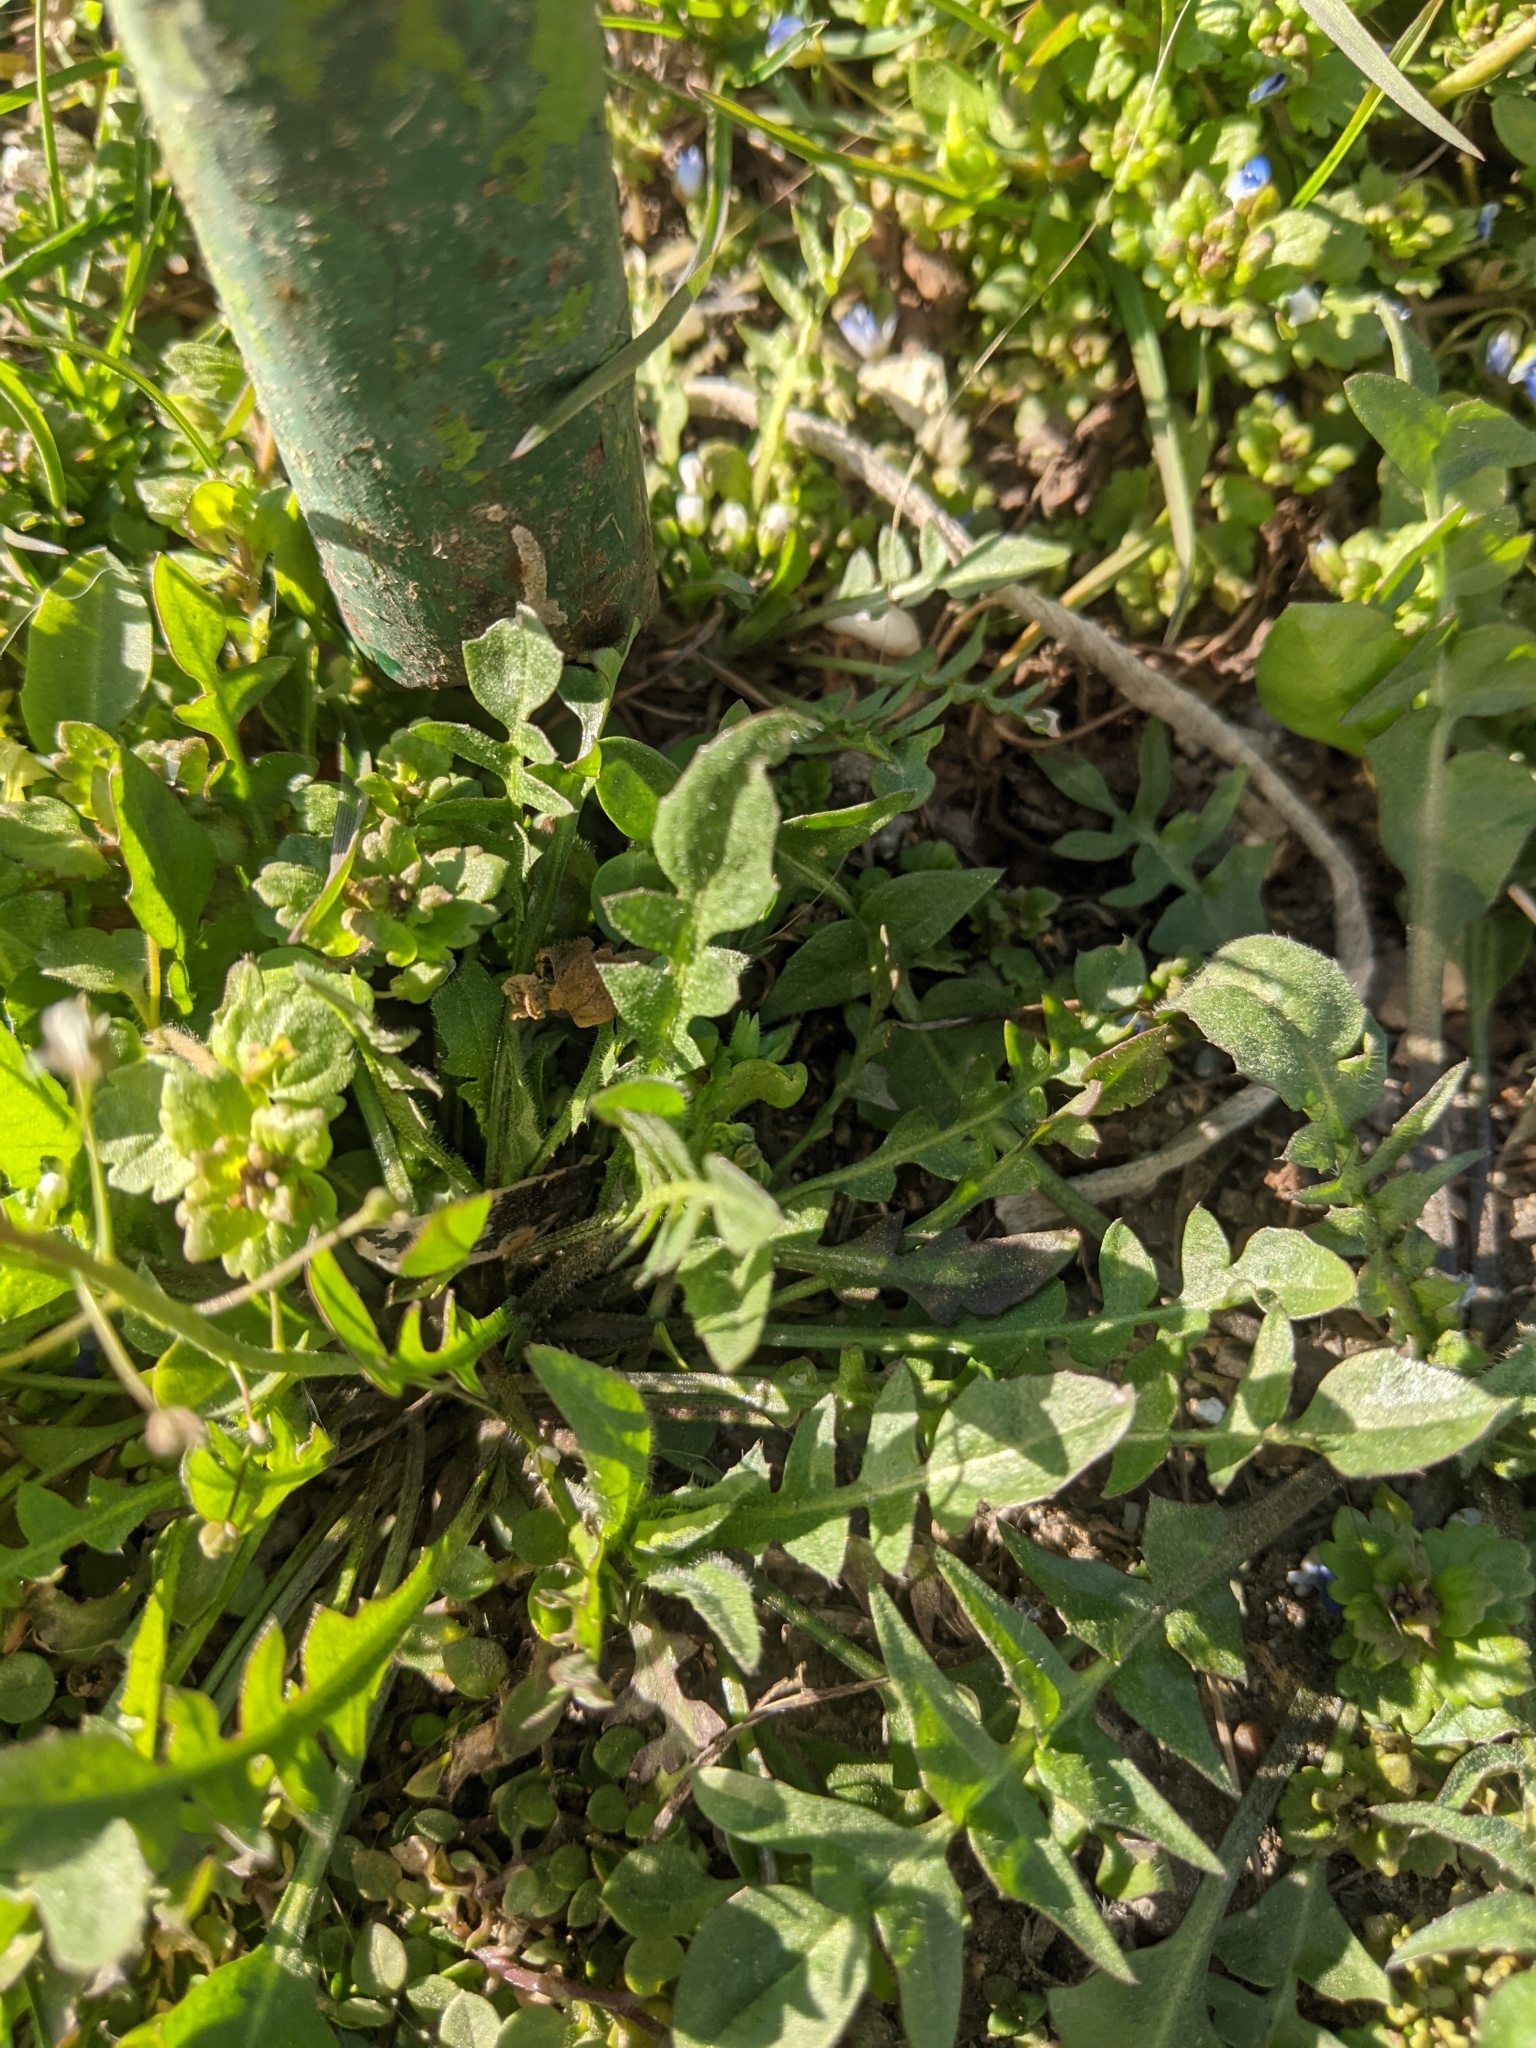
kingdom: Plantae
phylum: Tracheophyta
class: Magnoliopsida
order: Brassicales
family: Brassicaceae
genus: Capsella
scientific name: Capsella bursa-pastoris
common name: Shepherd's purse
